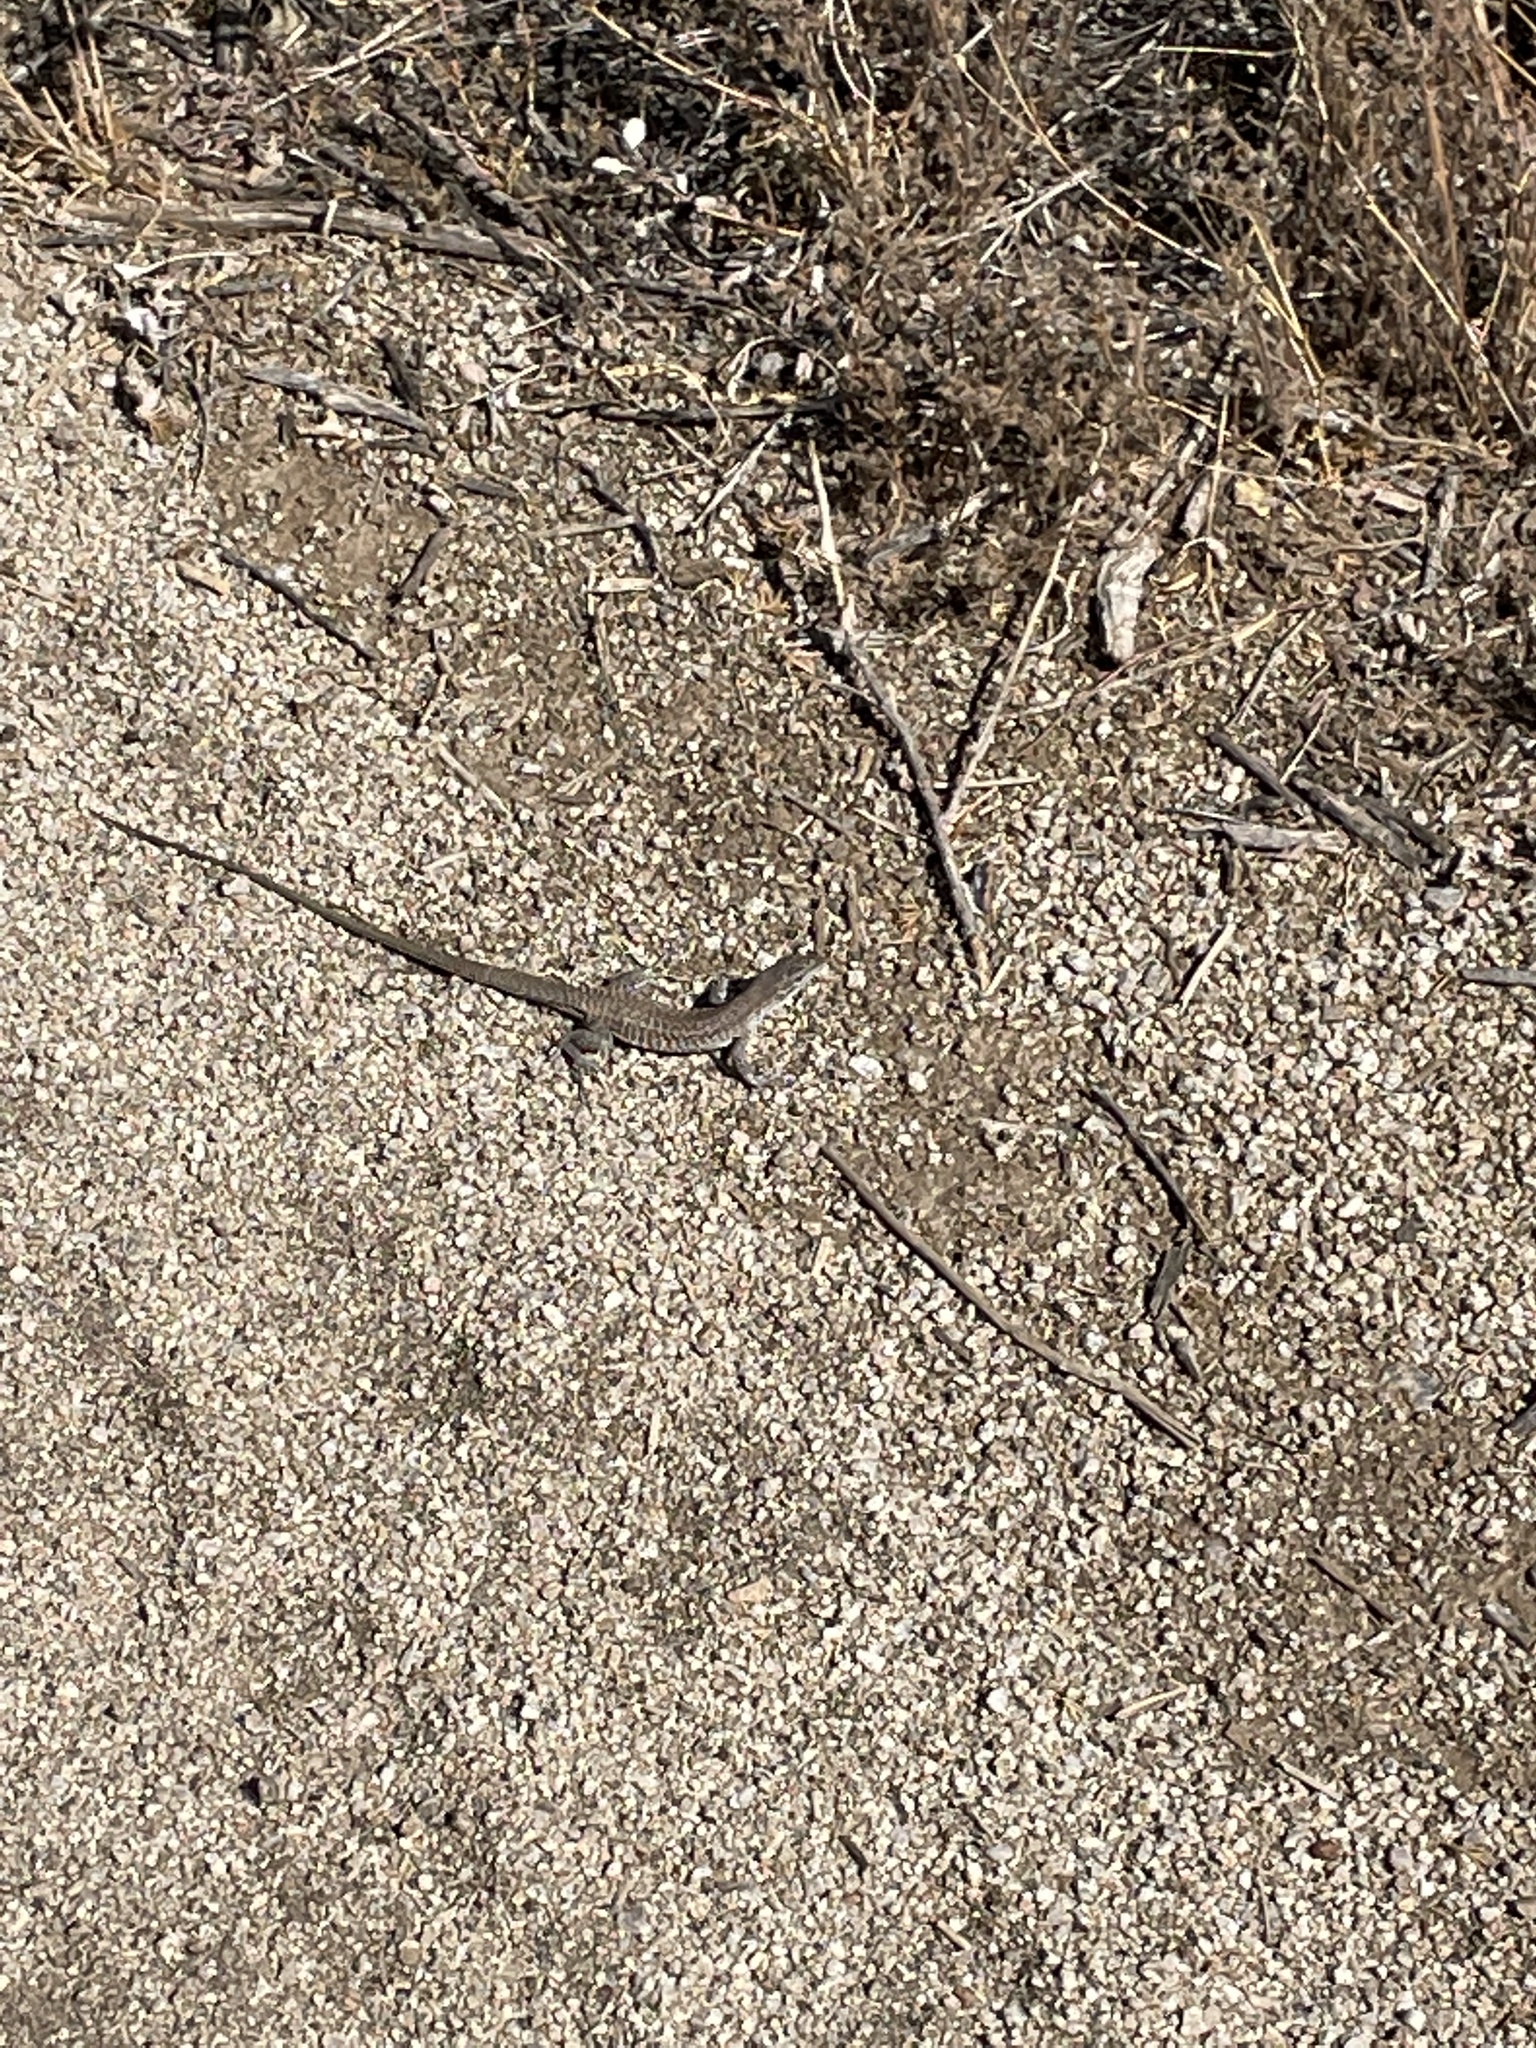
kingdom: Animalia
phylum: Chordata
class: Squamata
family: Teiidae
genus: Aspidoscelis
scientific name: Aspidoscelis exsanguis
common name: Chihuahuan spotted whiptail
